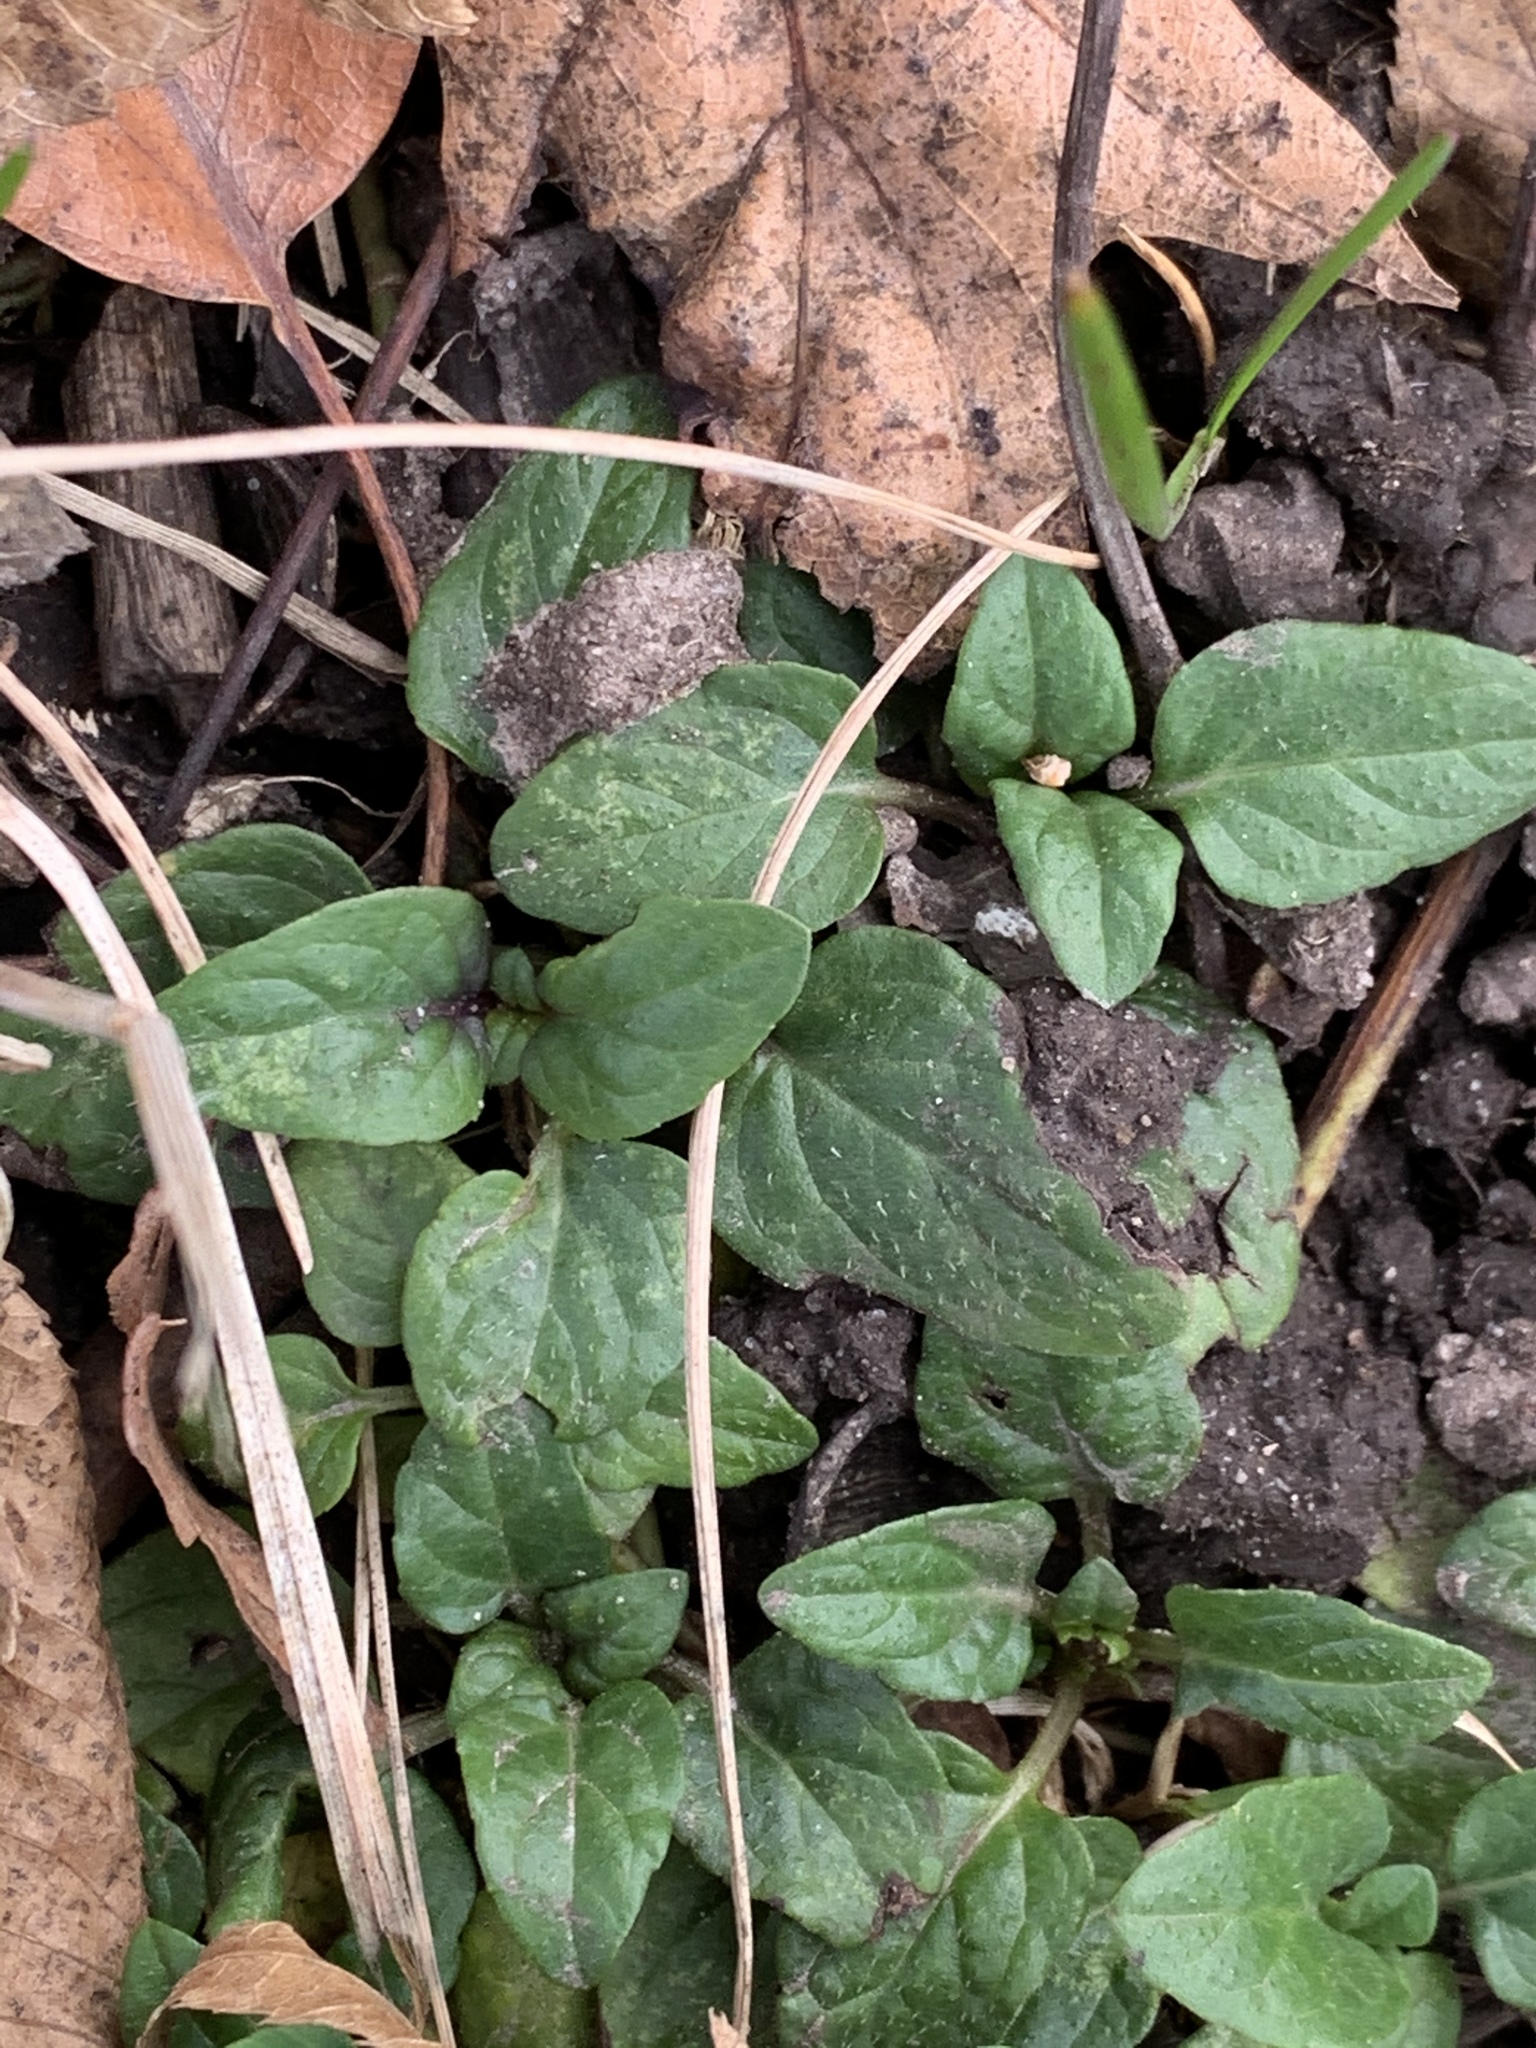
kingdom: Plantae
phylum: Tracheophyta
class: Magnoliopsida
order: Lamiales
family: Lamiaceae
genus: Prunella
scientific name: Prunella vulgaris
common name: Heal-all
